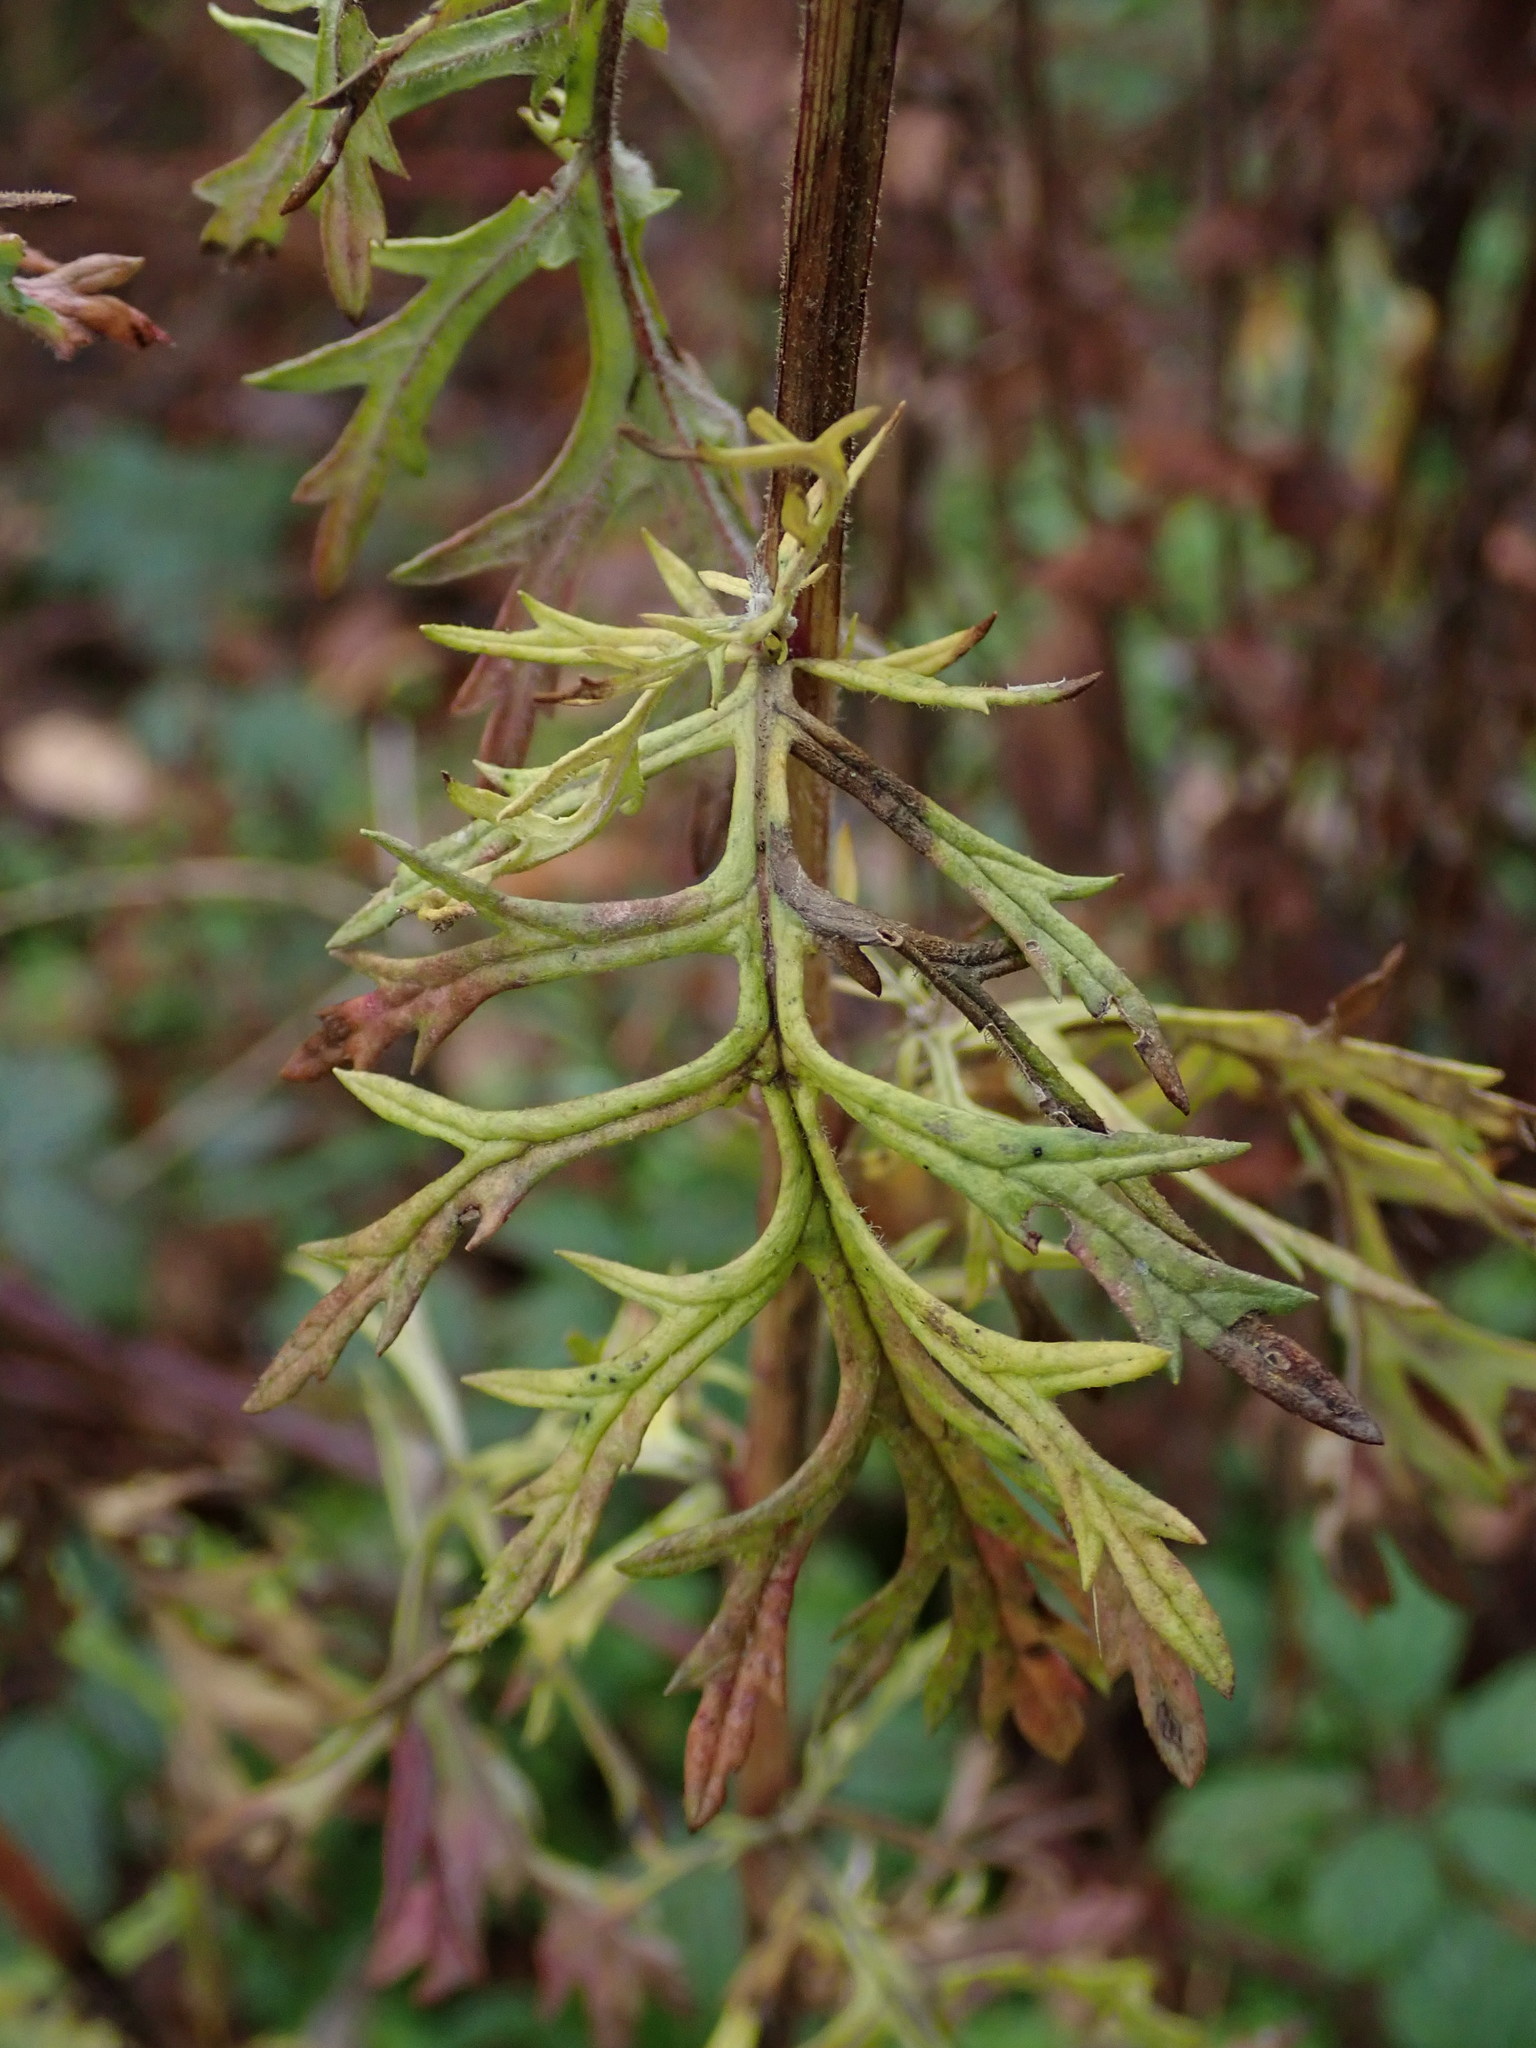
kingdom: Plantae
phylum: Tracheophyta
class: Magnoliopsida
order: Asterales
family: Asteraceae
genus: Jacobaea
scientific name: Jacobaea erucifolia
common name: Hoary ragwort
